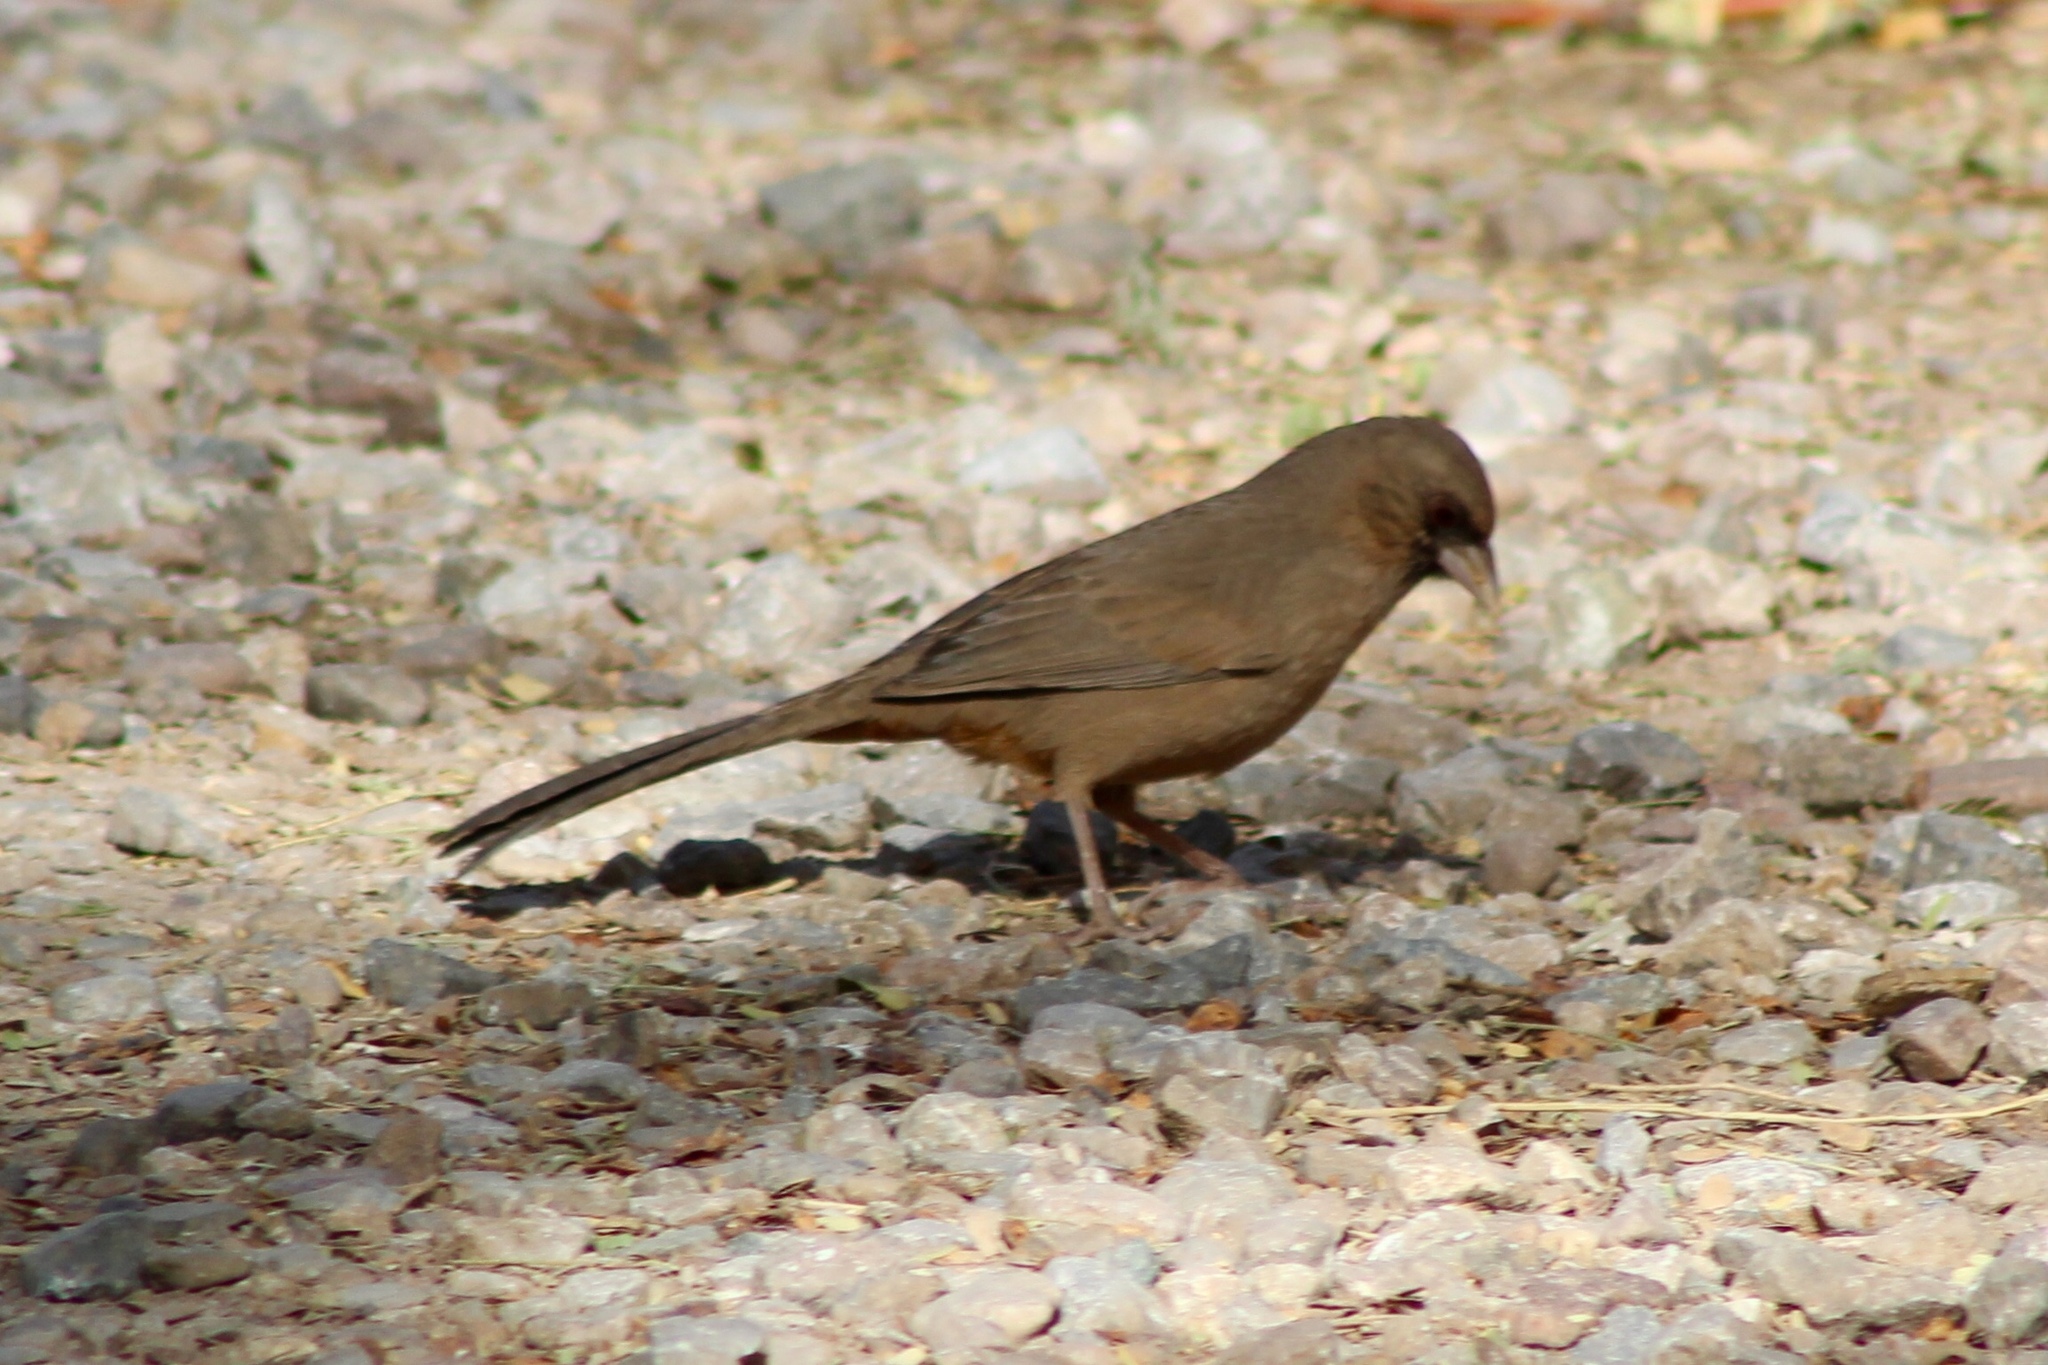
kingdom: Animalia
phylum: Chordata
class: Aves
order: Passeriformes
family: Passerellidae
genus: Melozone
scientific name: Melozone aberti
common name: Abert's towhee
